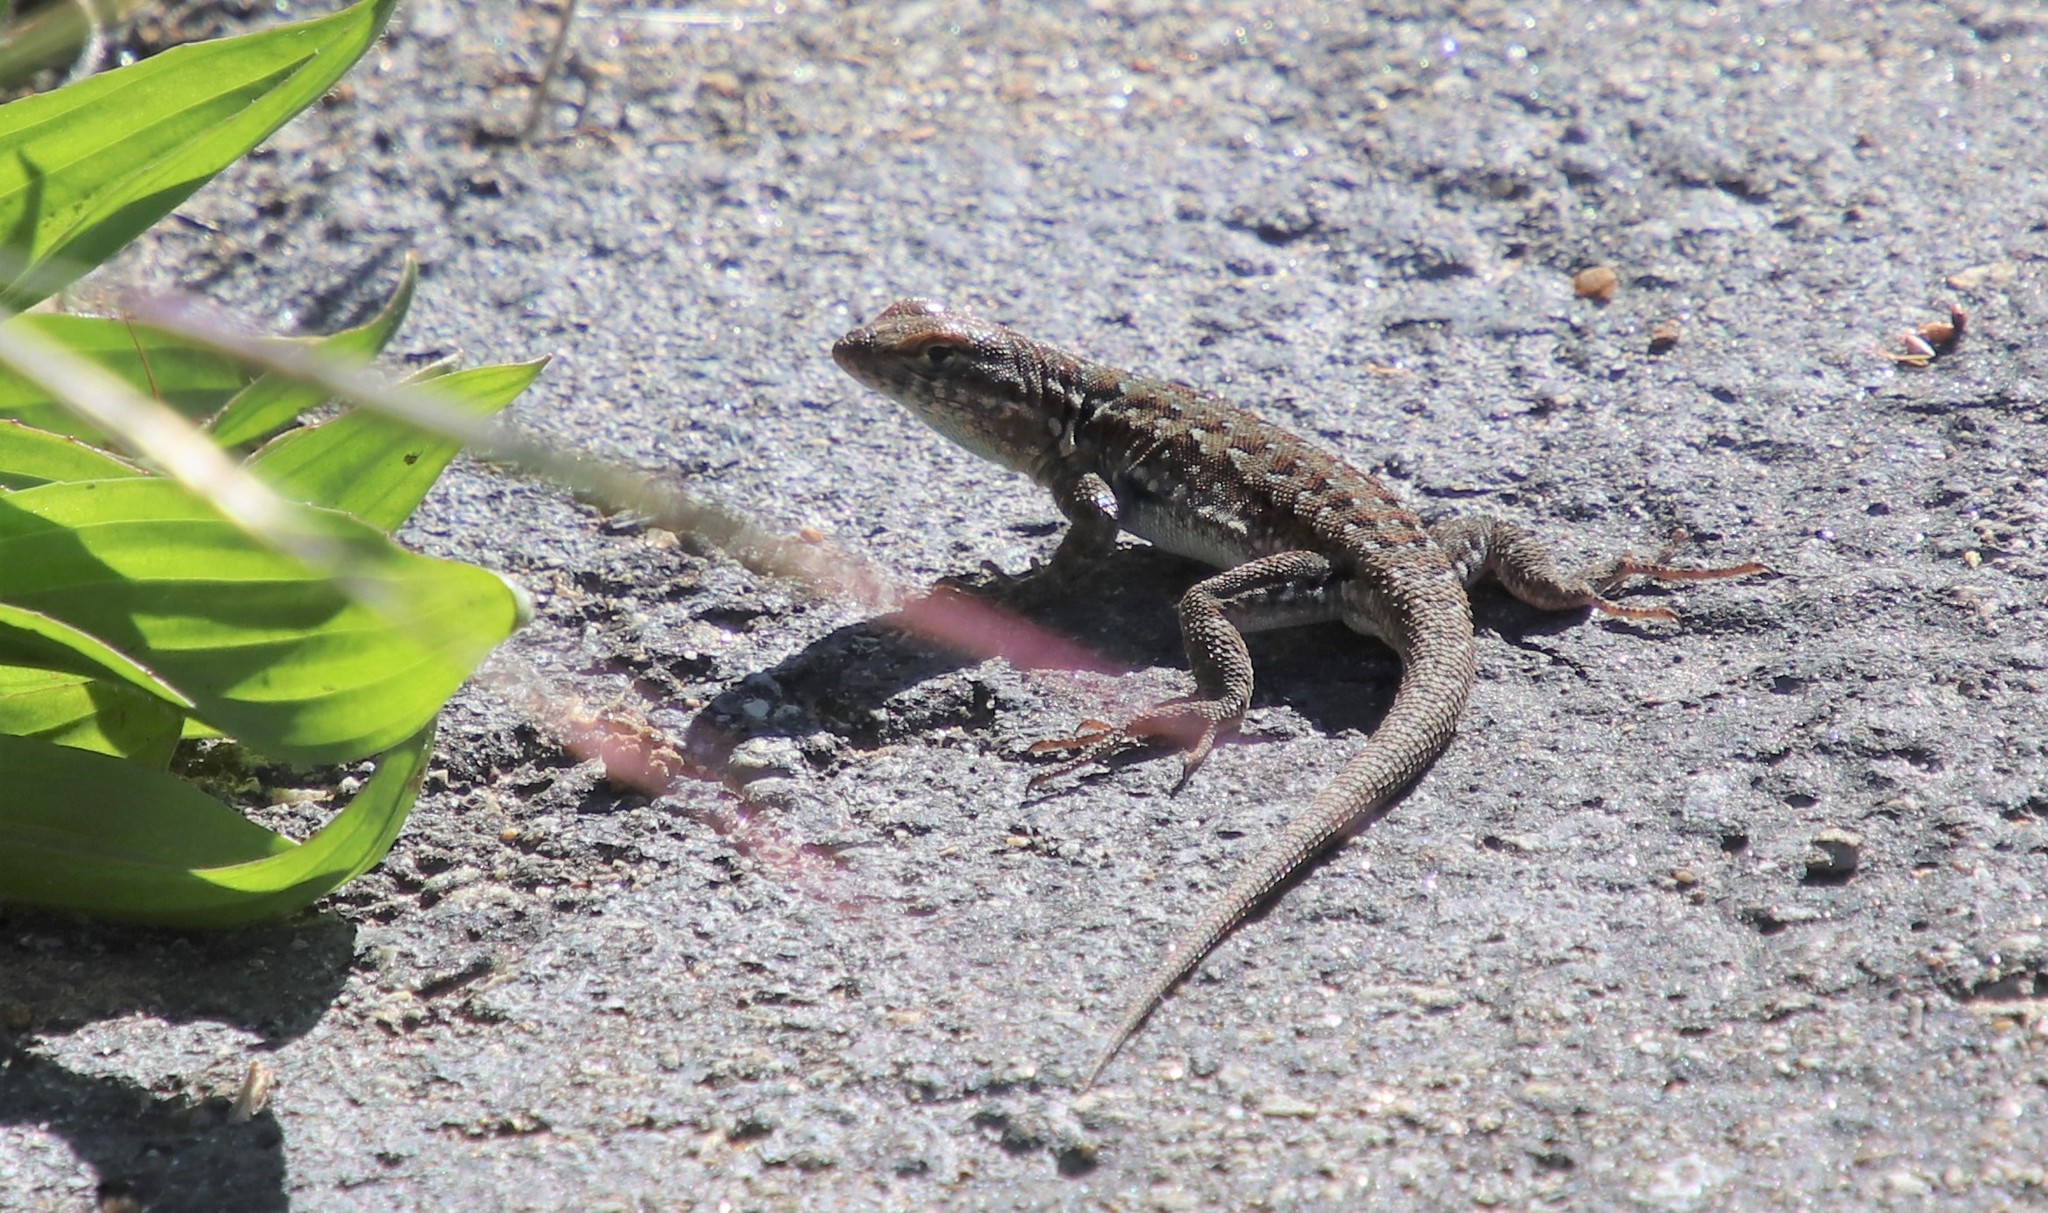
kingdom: Animalia
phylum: Chordata
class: Squamata
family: Phrynosomatidae
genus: Uta
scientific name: Uta stansburiana
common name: Side-blotched lizard
